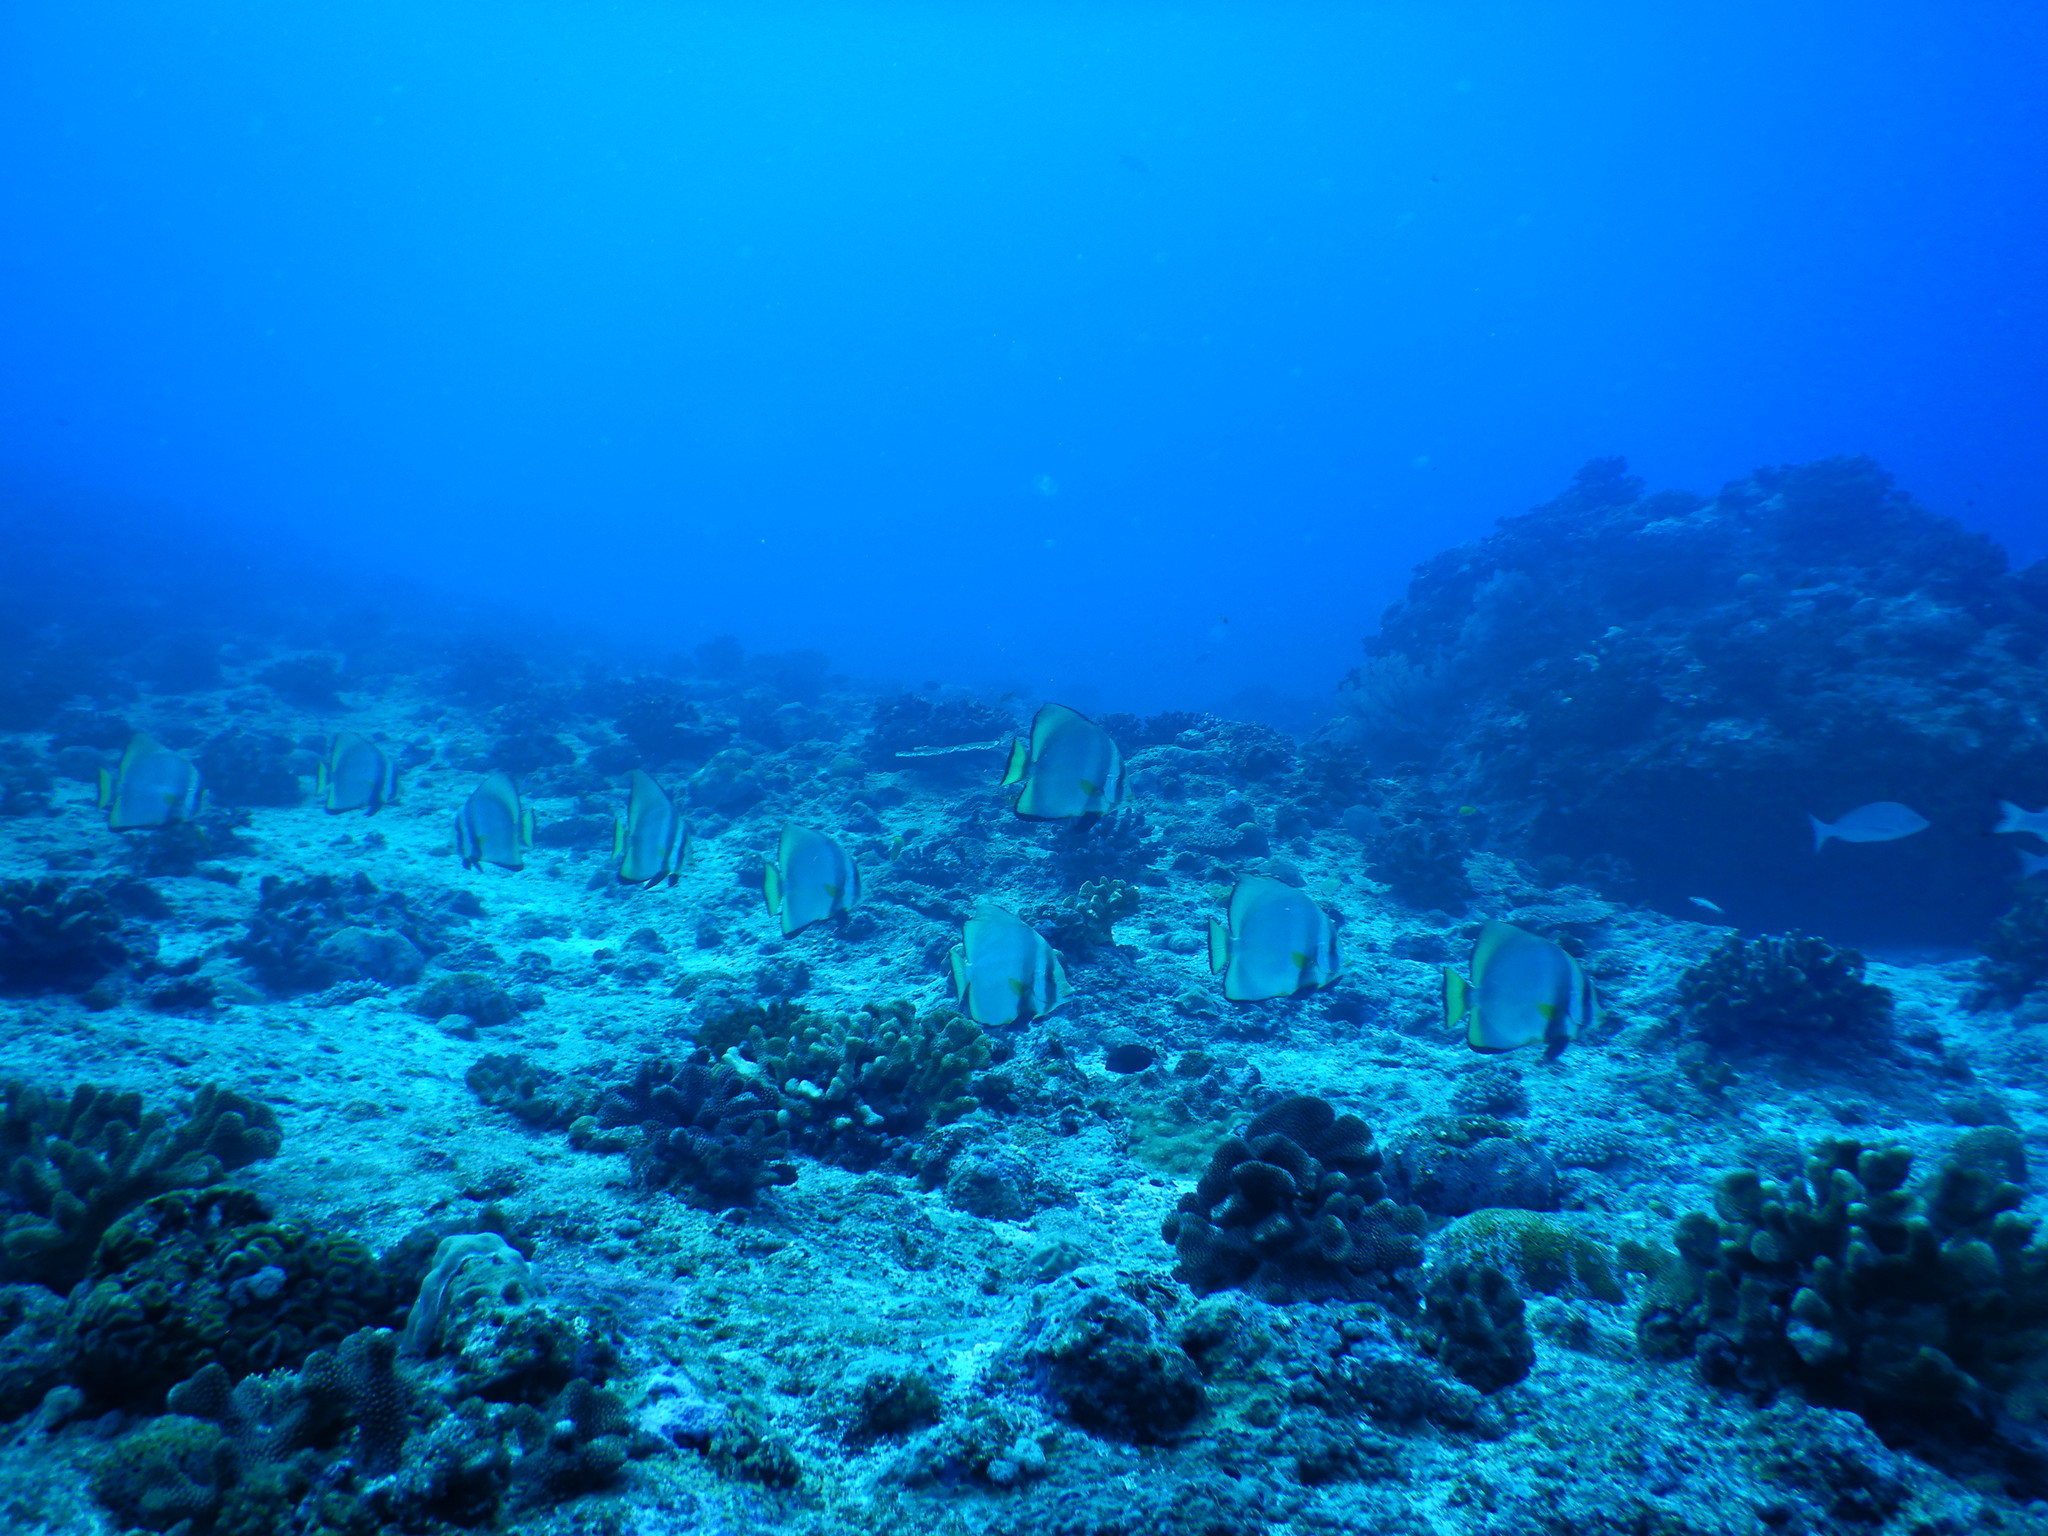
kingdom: Animalia
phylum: Chordata
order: Perciformes
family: Ephippidae
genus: Platax
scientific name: Platax pinnatus
